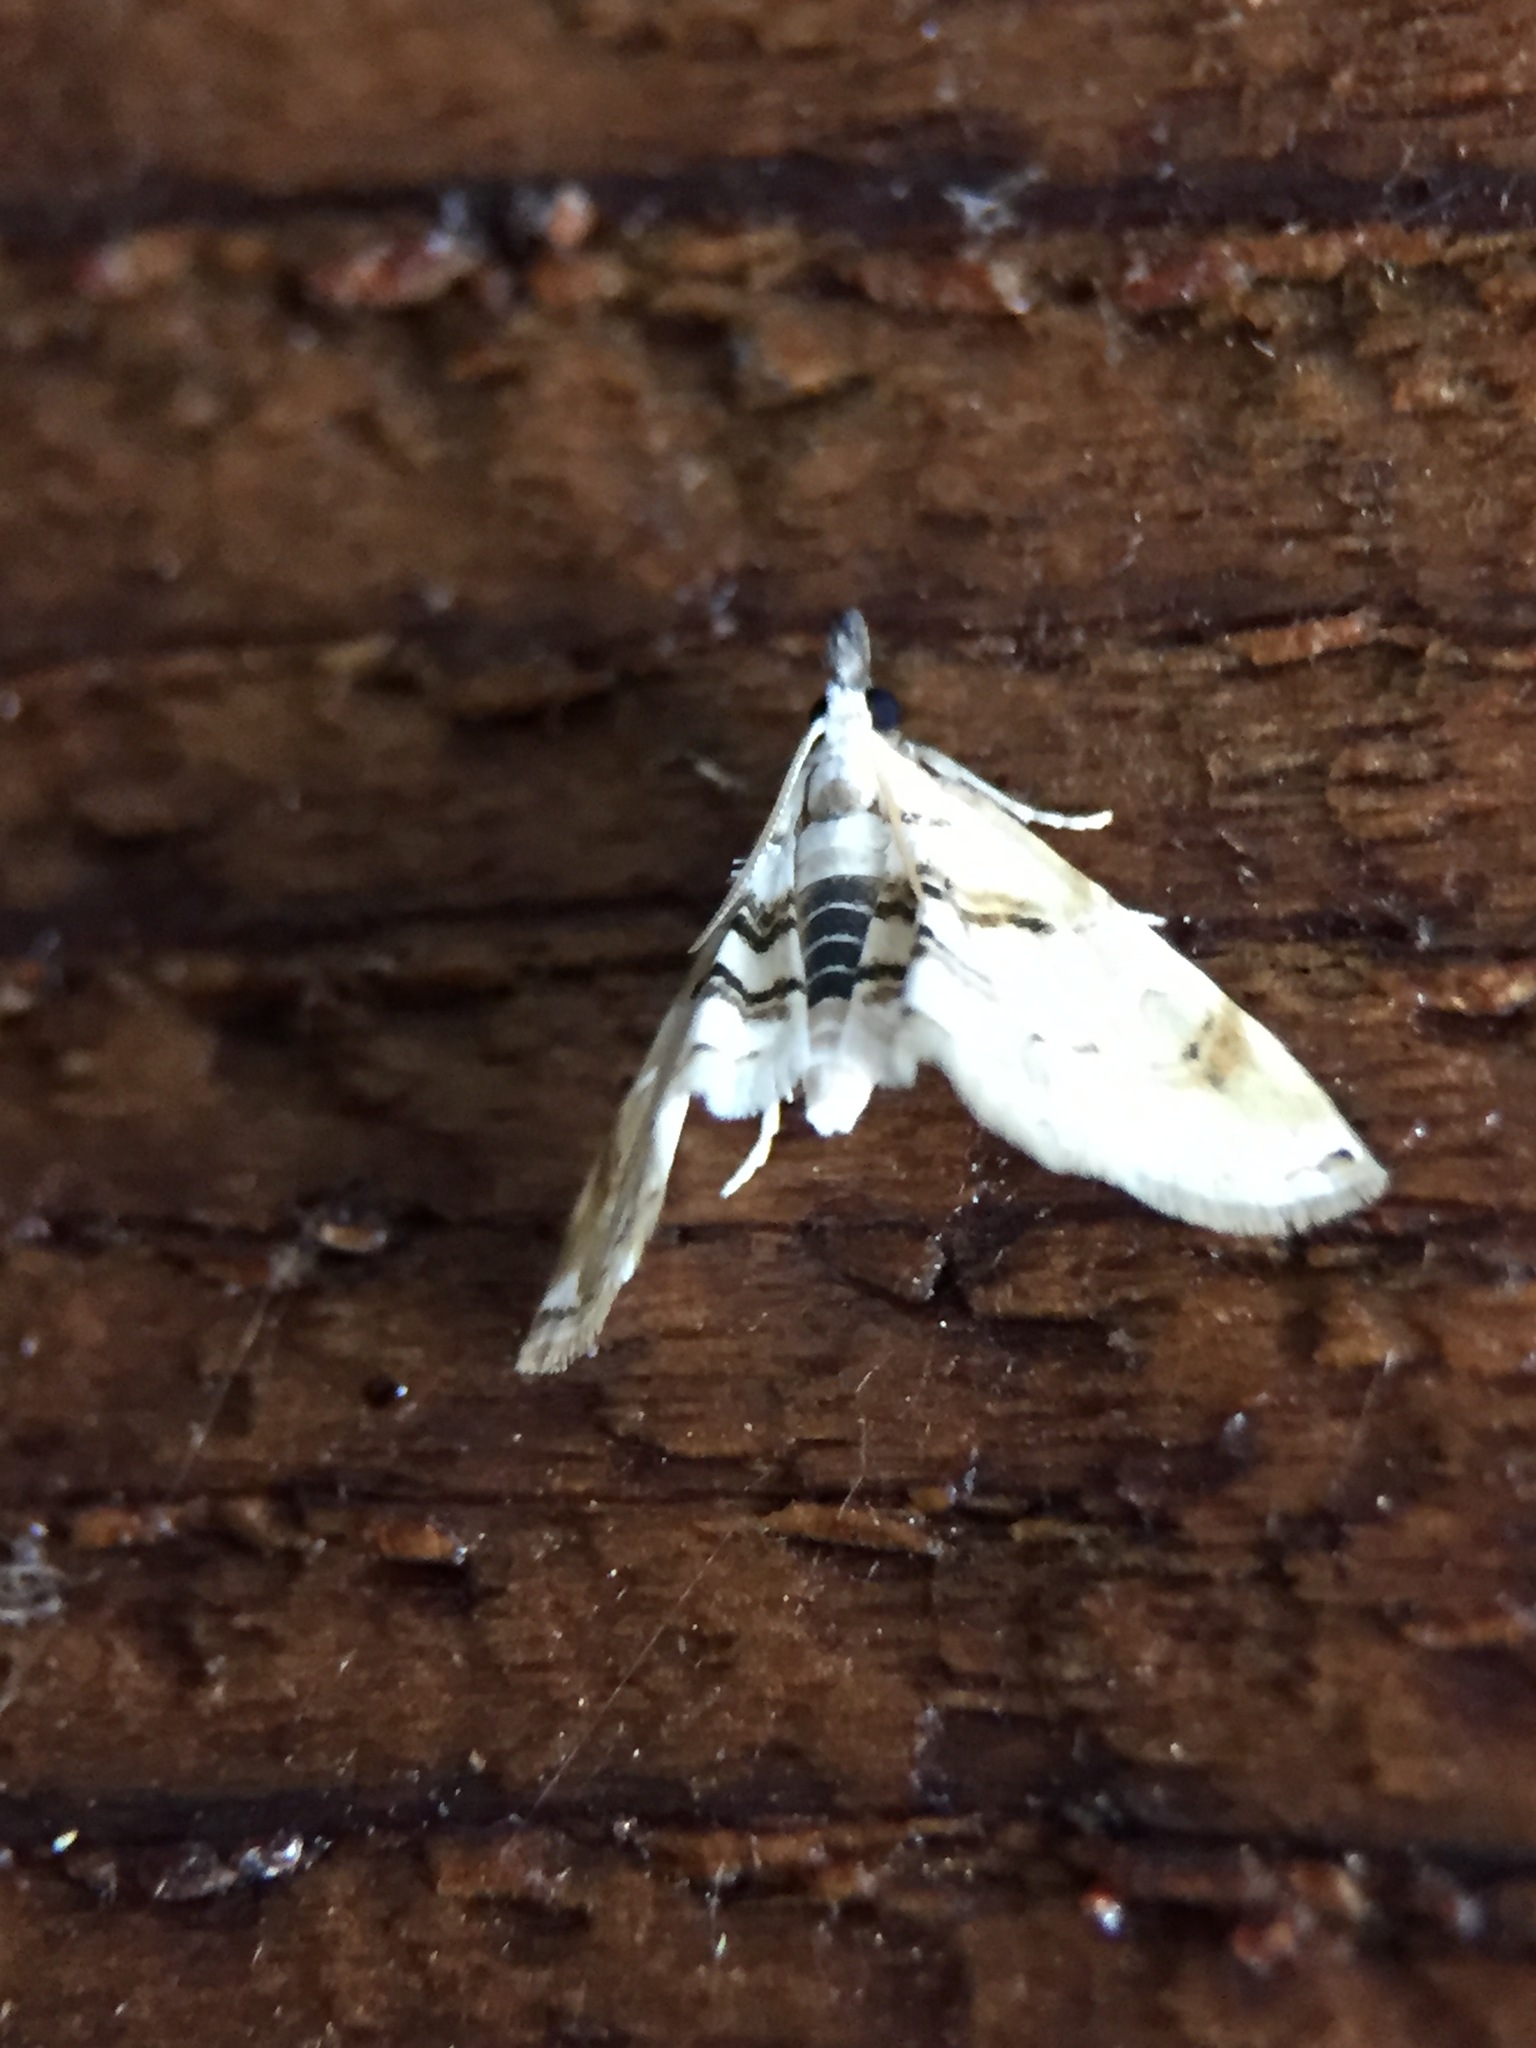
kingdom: Animalia
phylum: Arthropoda
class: Insecta
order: Lepidoptera
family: Crambidae
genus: Trichophysetis
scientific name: Trichophysetis
